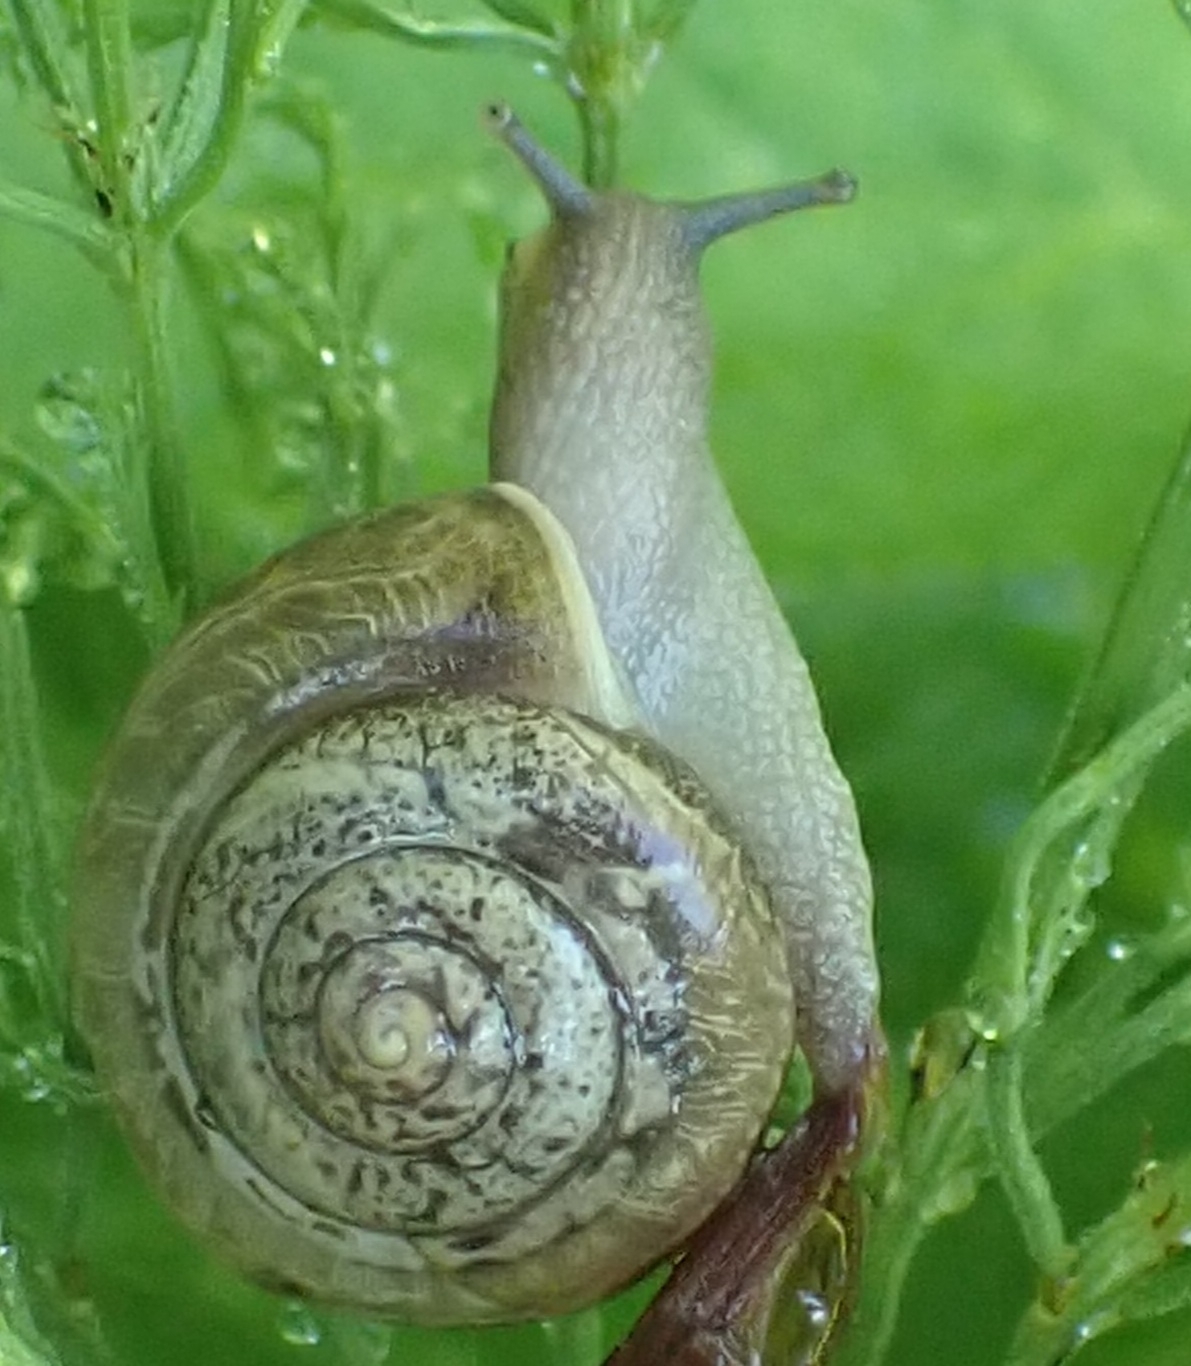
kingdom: Animalia
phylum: Mollusca
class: Gastropoda
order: Stylommatophora
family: Camaenidae
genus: Fruticicola
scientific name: Fruticicola fruticum
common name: Bush snail
